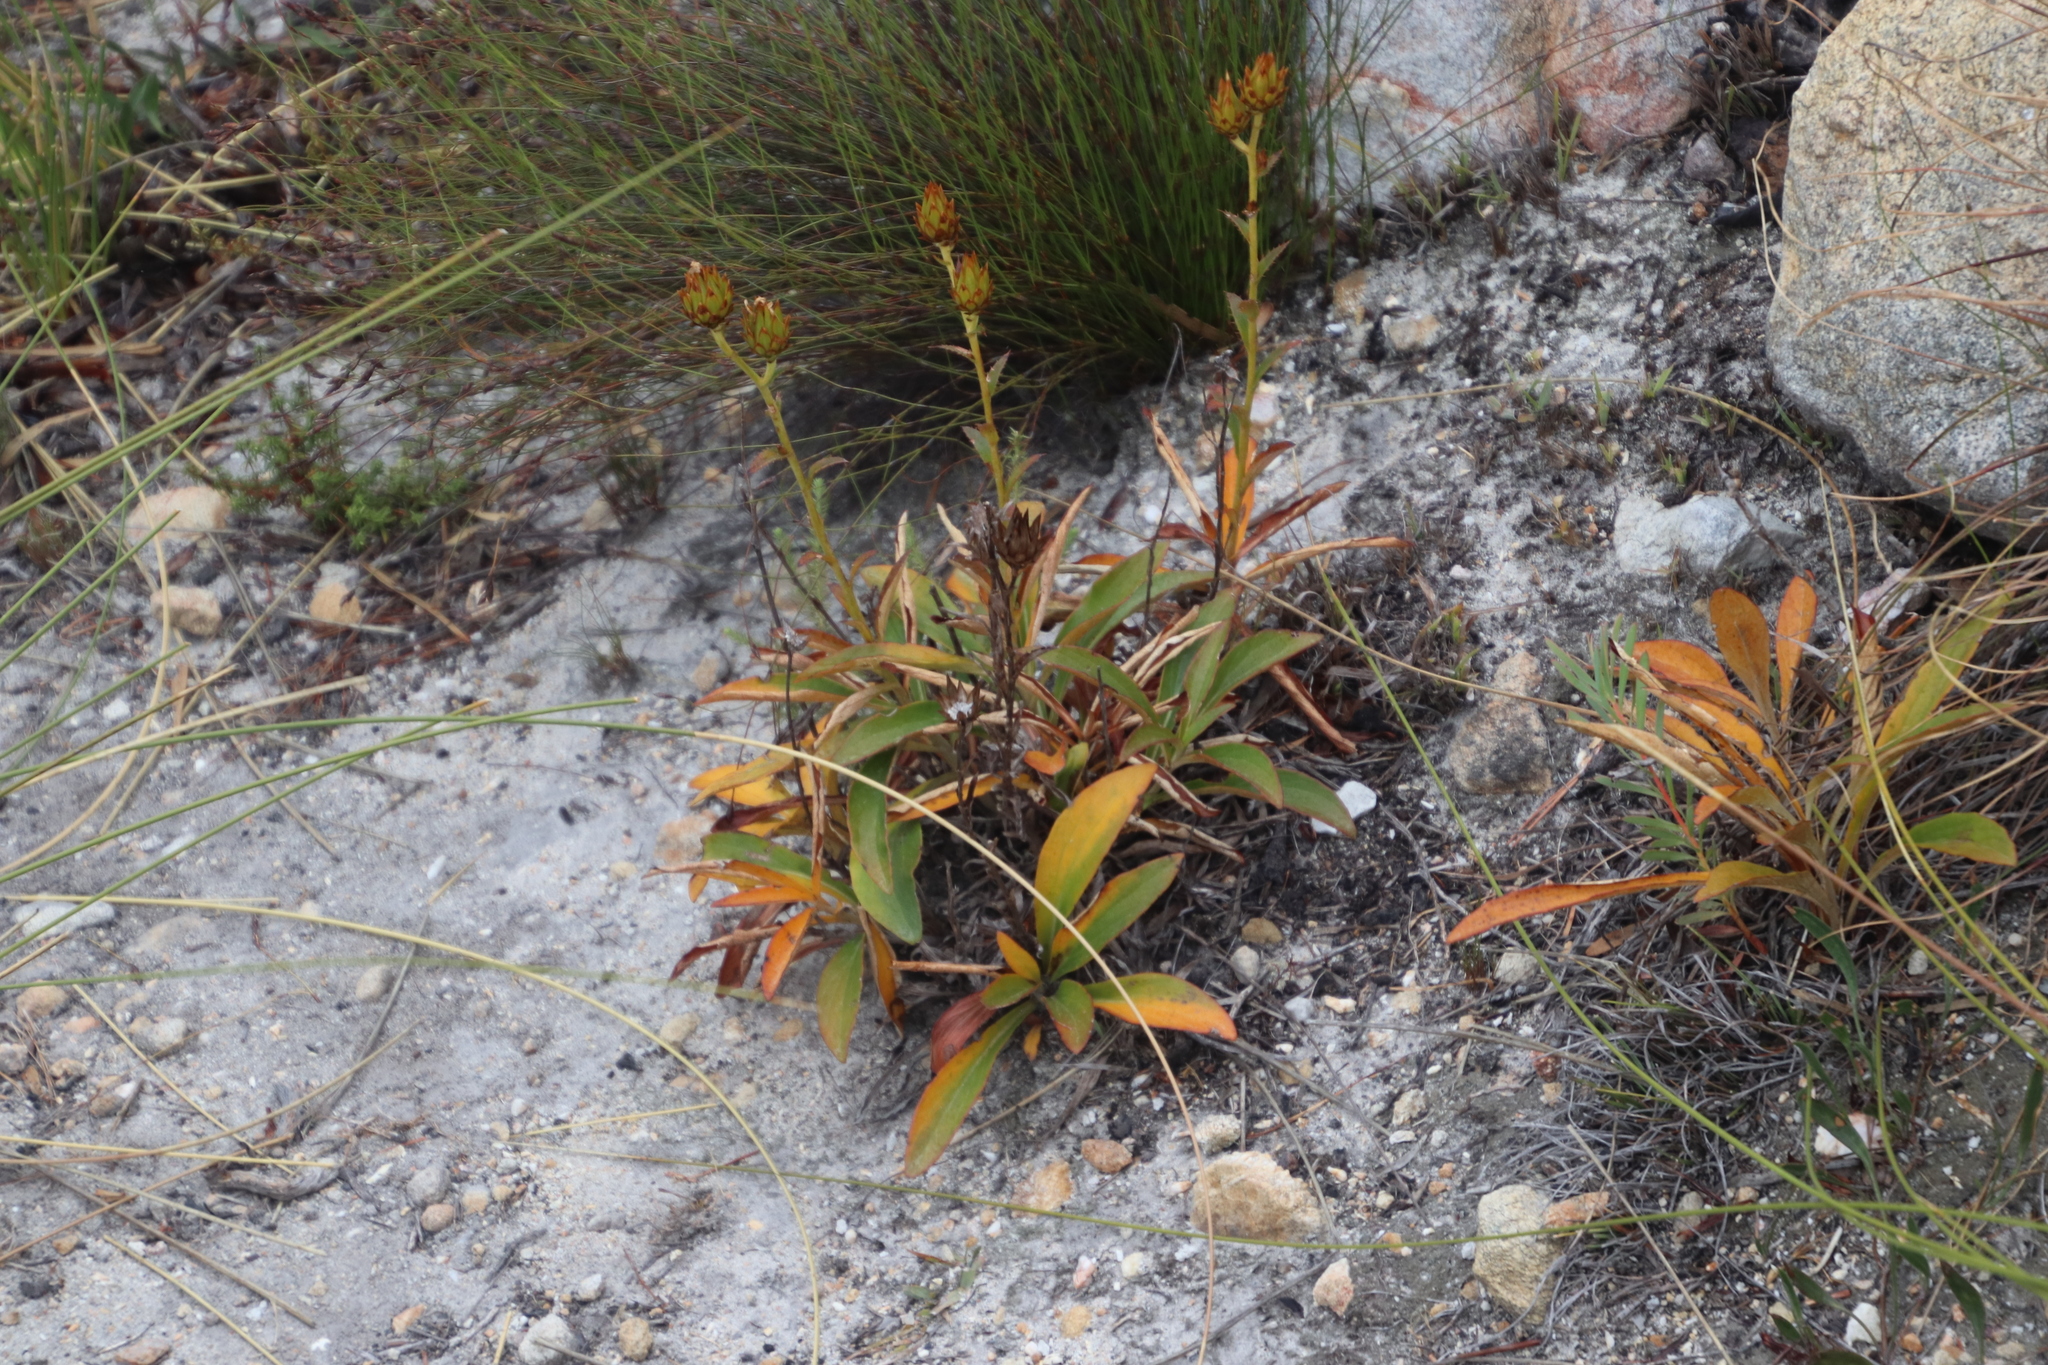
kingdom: Plantae
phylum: Tracheophyta
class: Magnoliopsida
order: Asterales
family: Asteraceae
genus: Berkheya
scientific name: Berkheya herbacea
